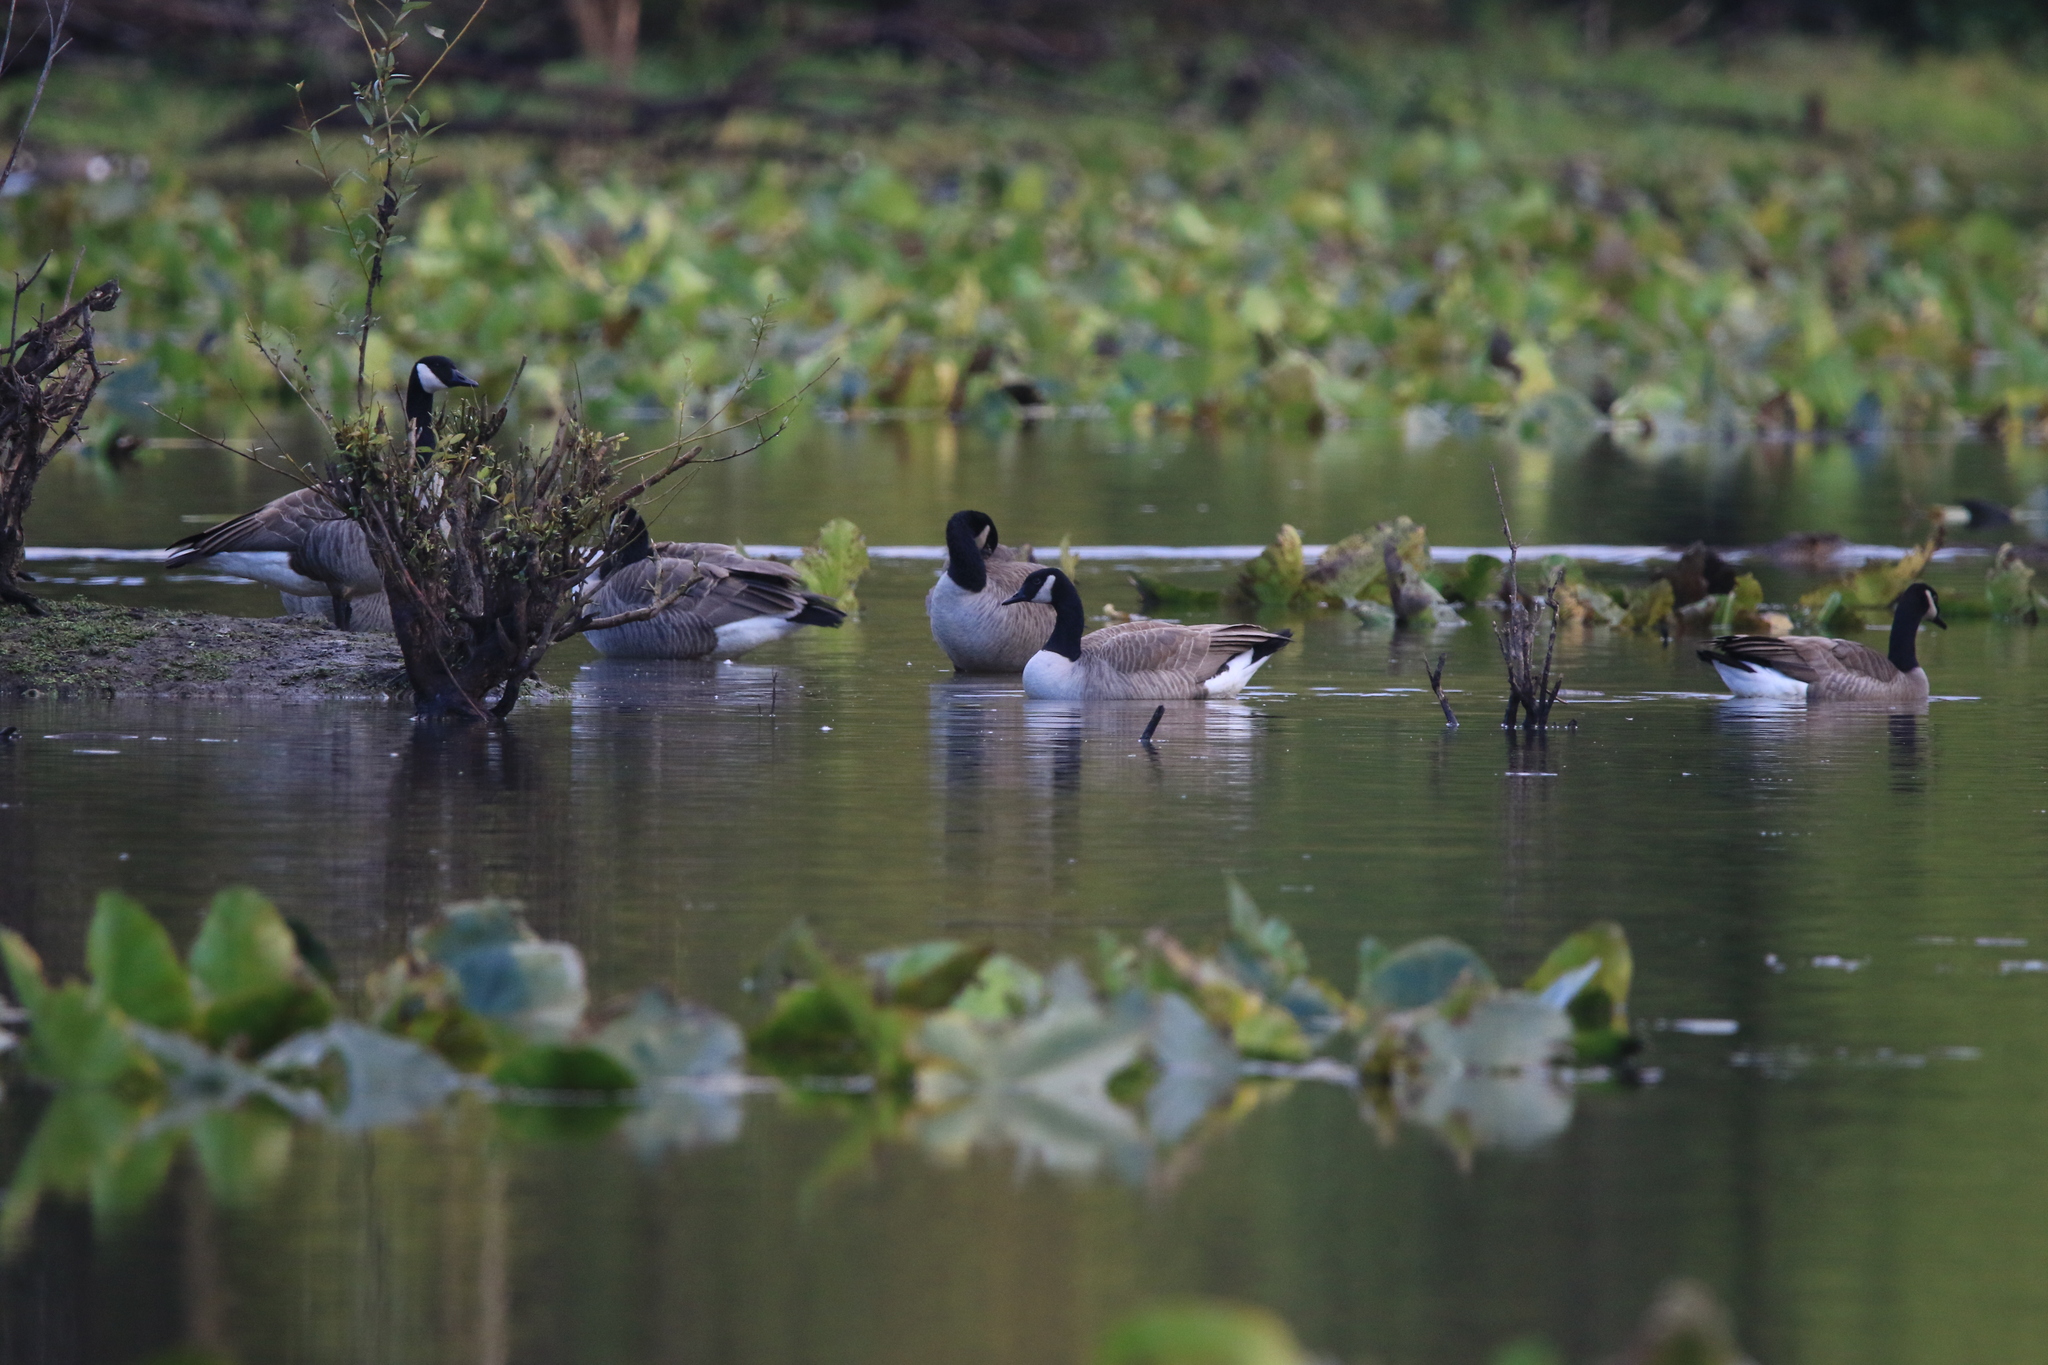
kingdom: Animalia
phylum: Chordata
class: Aves
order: Anseriformes
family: Anatidae
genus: Branta
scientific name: Branta canadensis
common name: Canada goose
